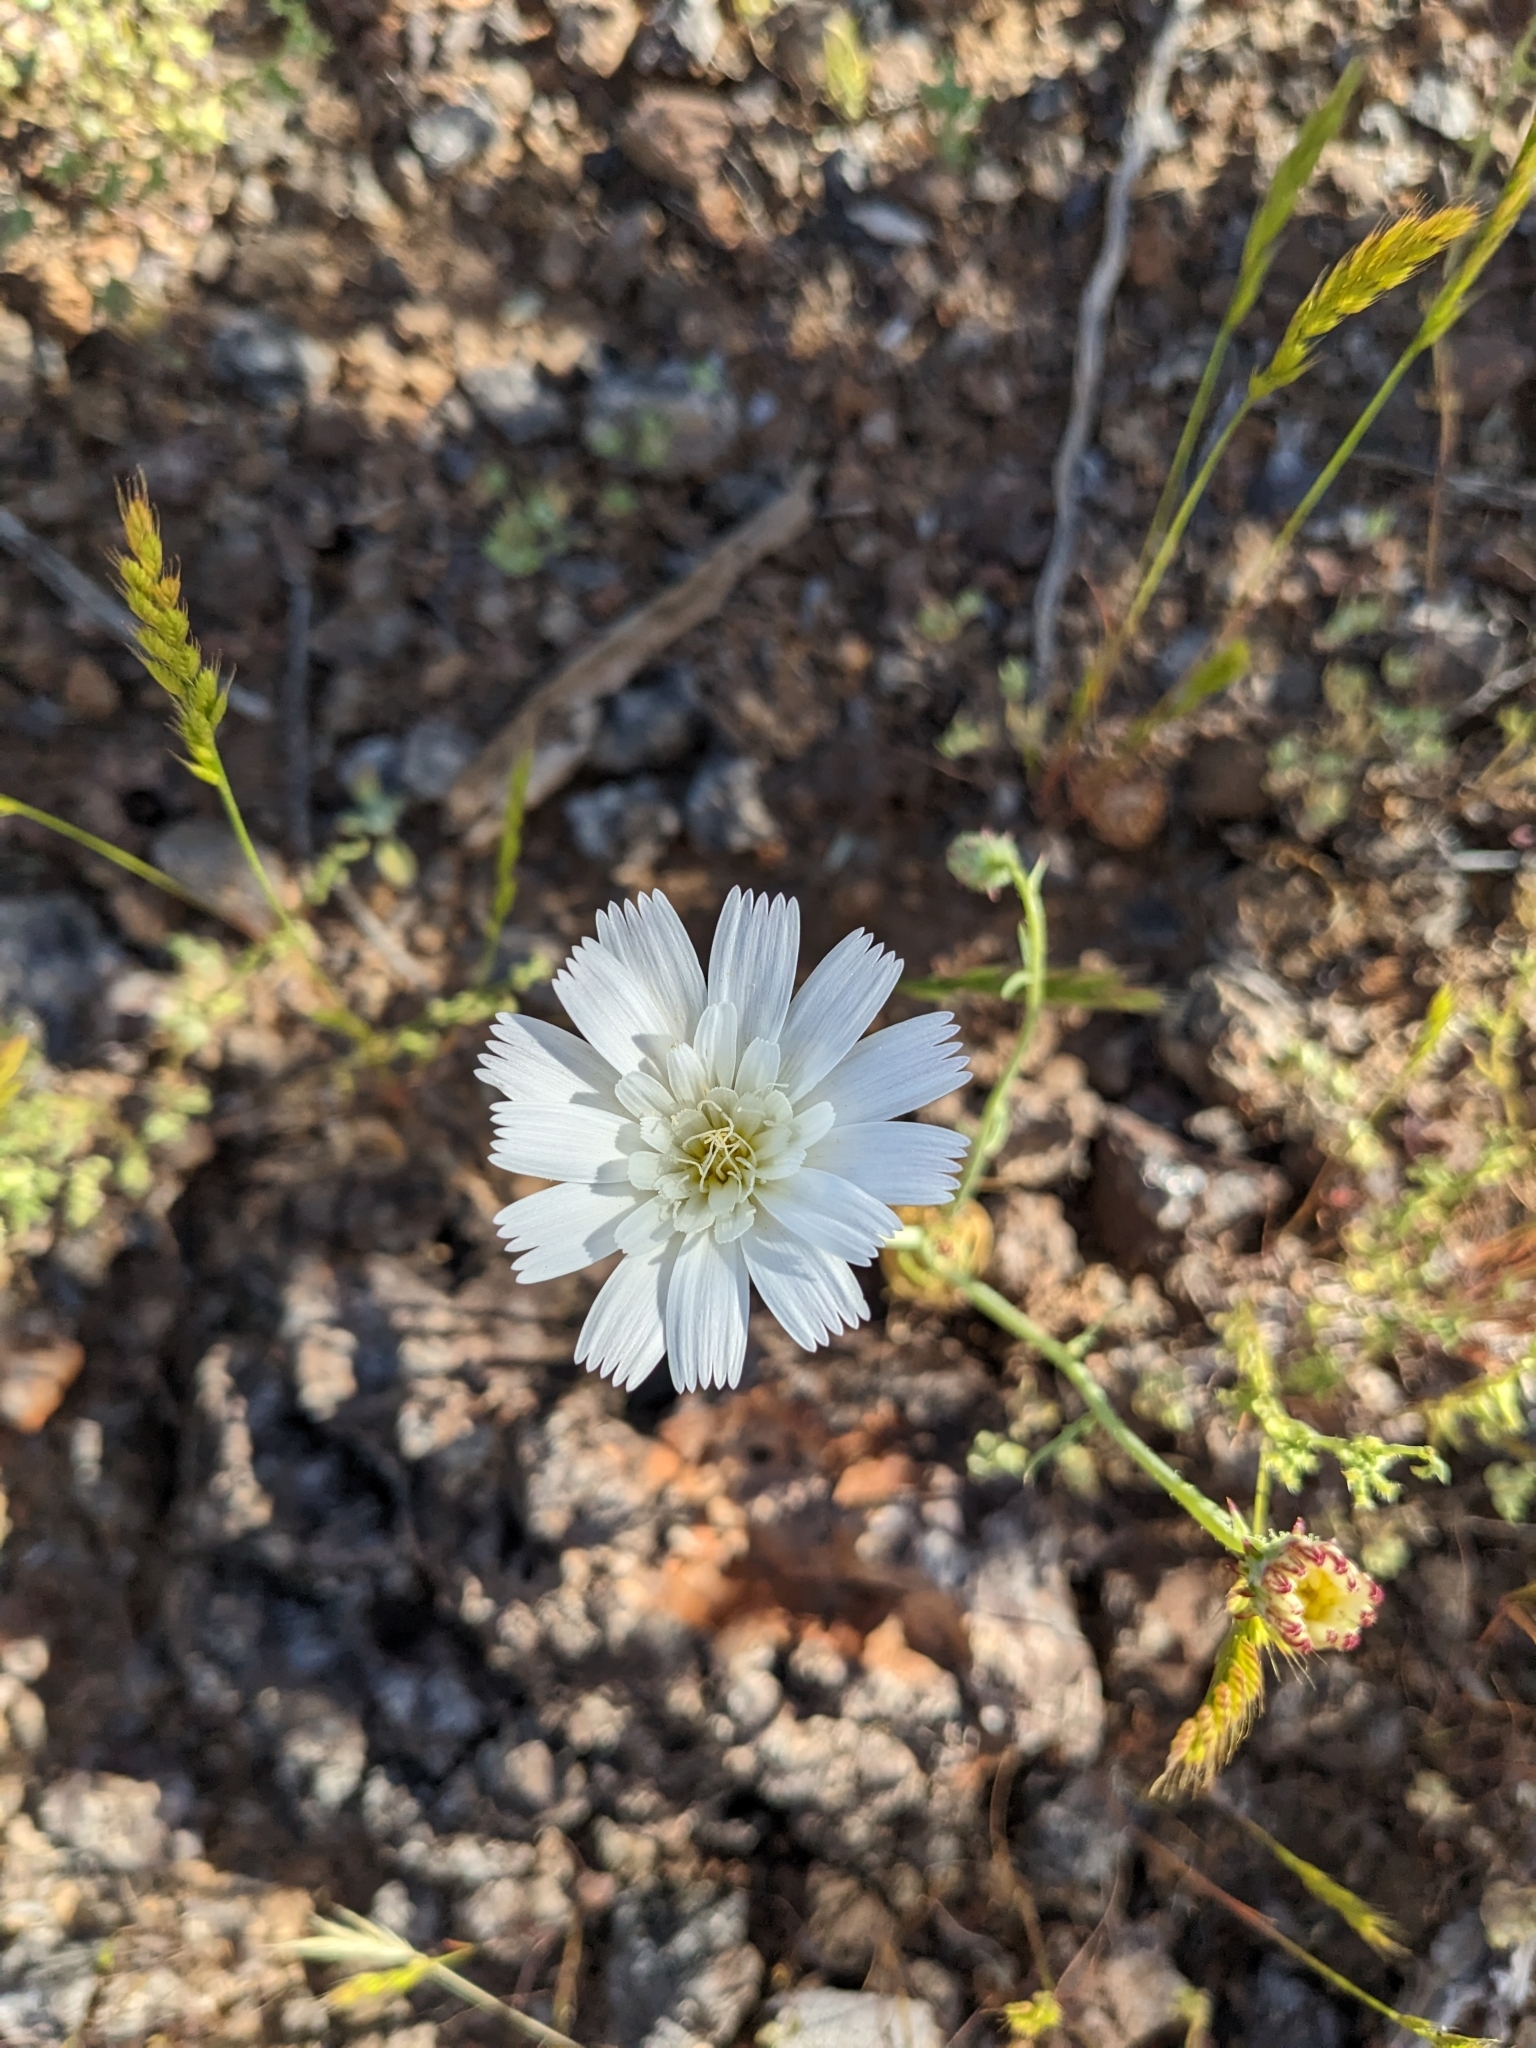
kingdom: Plantae
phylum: Tracheophyta
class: Magnoliopsida
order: Asterales
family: Asteraceae
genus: Rafinesquia
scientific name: Rafinesquia neomexicana
